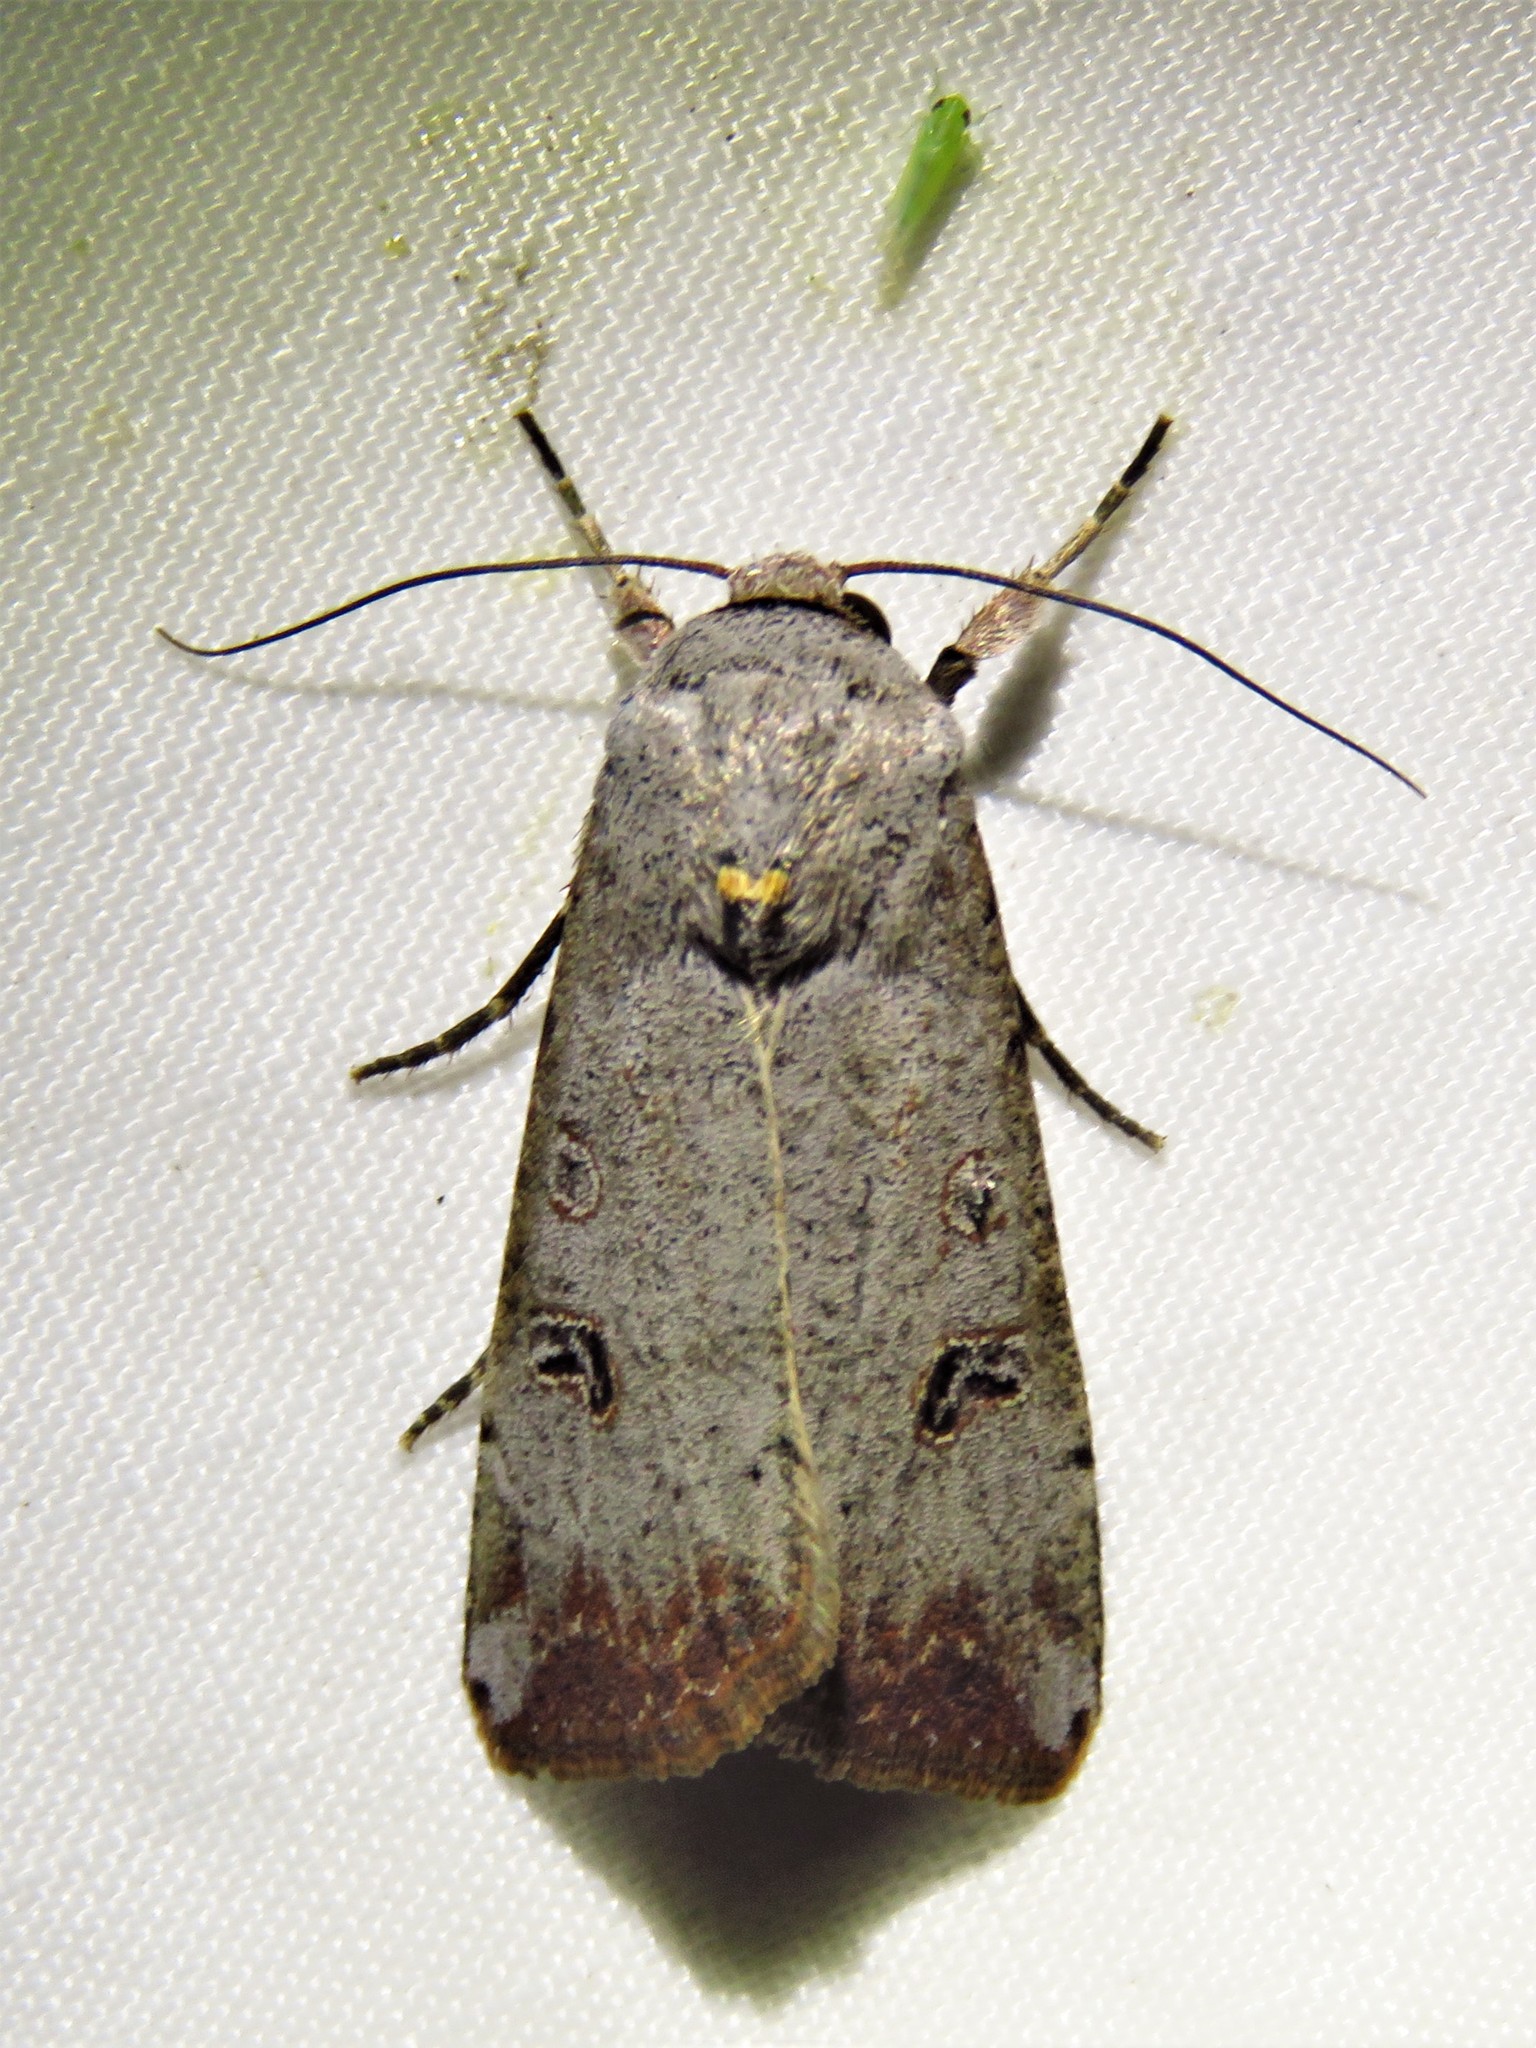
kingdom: Animalia
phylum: Arthropoda
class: Insecta
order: Lepidoptera
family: Noctuidae
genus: Anicla
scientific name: Anicla infecta
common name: Green cutworm
